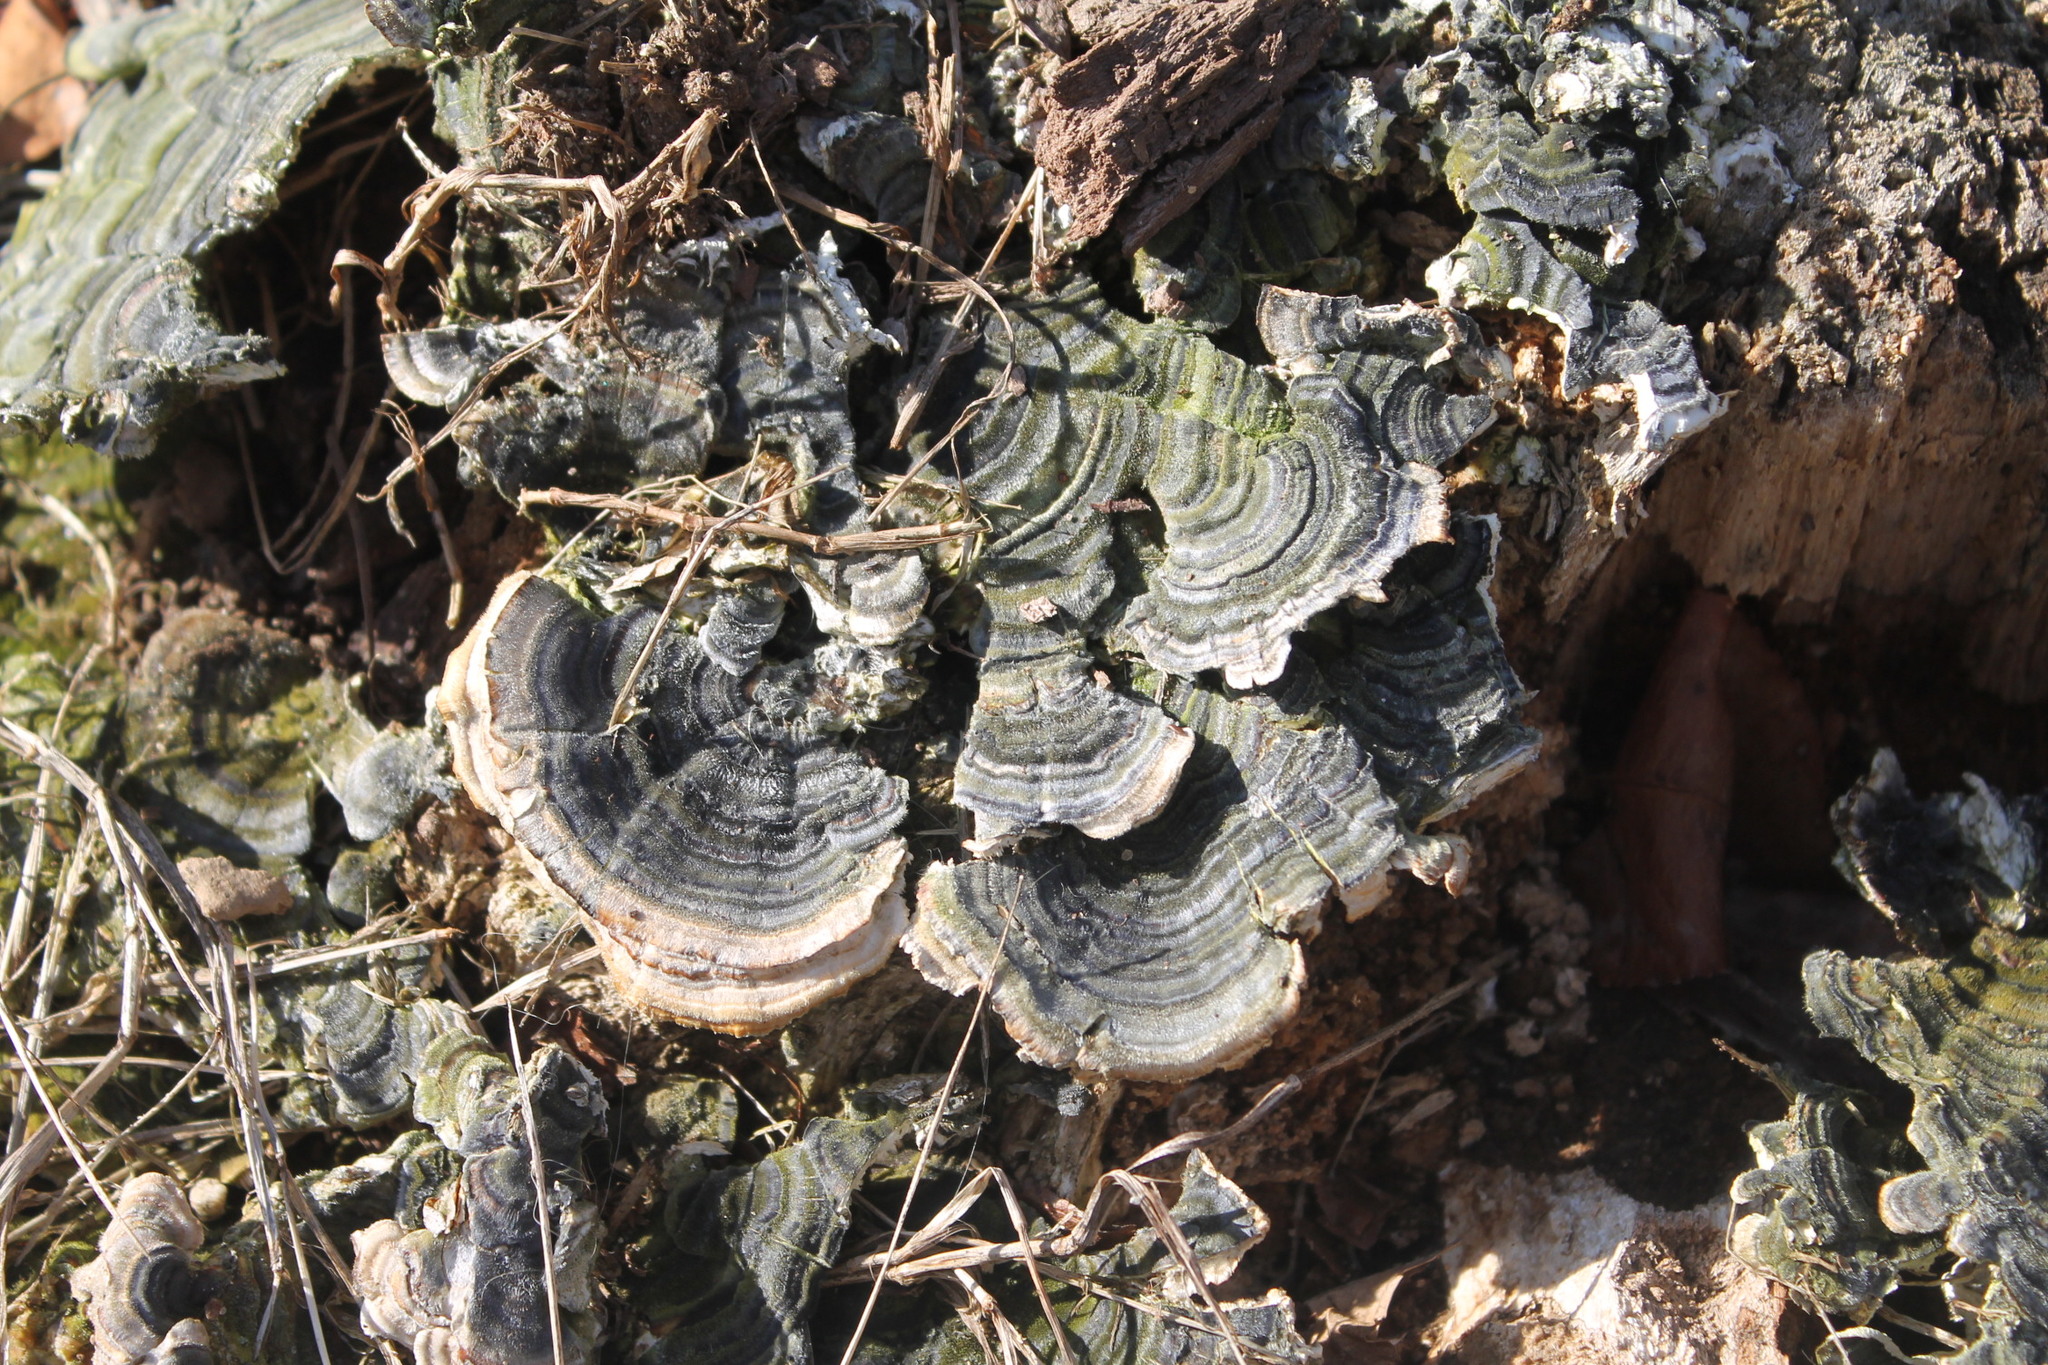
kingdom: Fungi
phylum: Basidiomycota
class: Agaricomycetes
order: Polyporales
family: Cerrenaceae
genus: Cerrena
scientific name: Cerrena unicolor
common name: Mossy maze polypore
